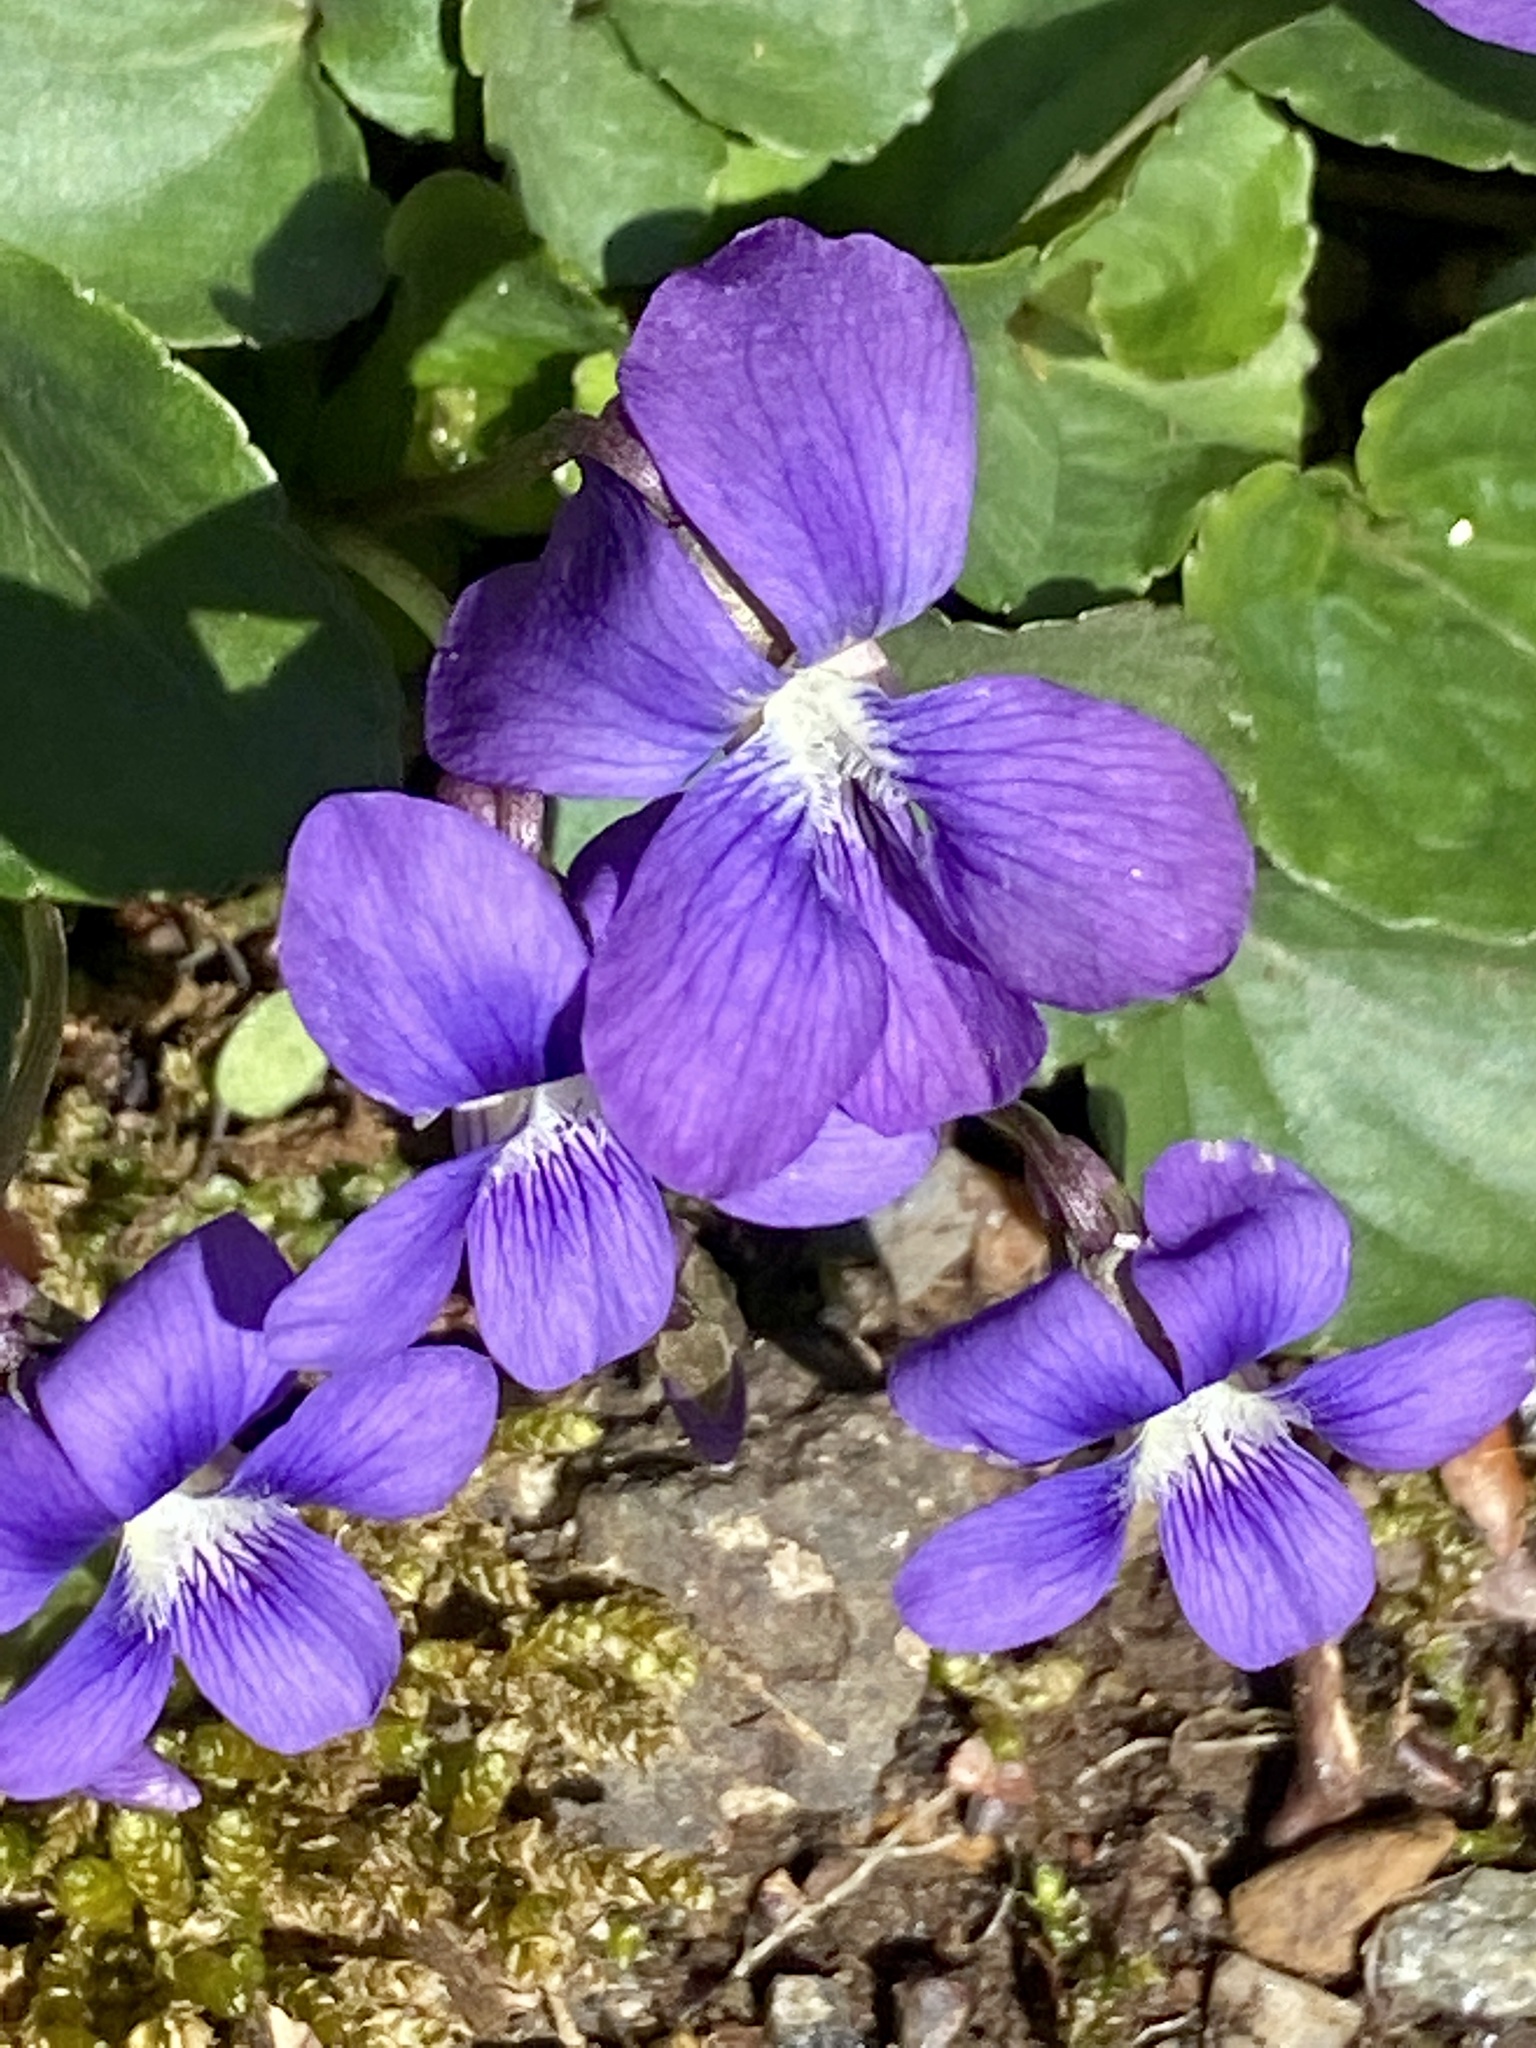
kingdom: Plantae
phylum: Tracheophyta
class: Magnoliopsida
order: Malpighiales
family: Violaceae
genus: Viola
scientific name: Viola sororia
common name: Dooryard violet
